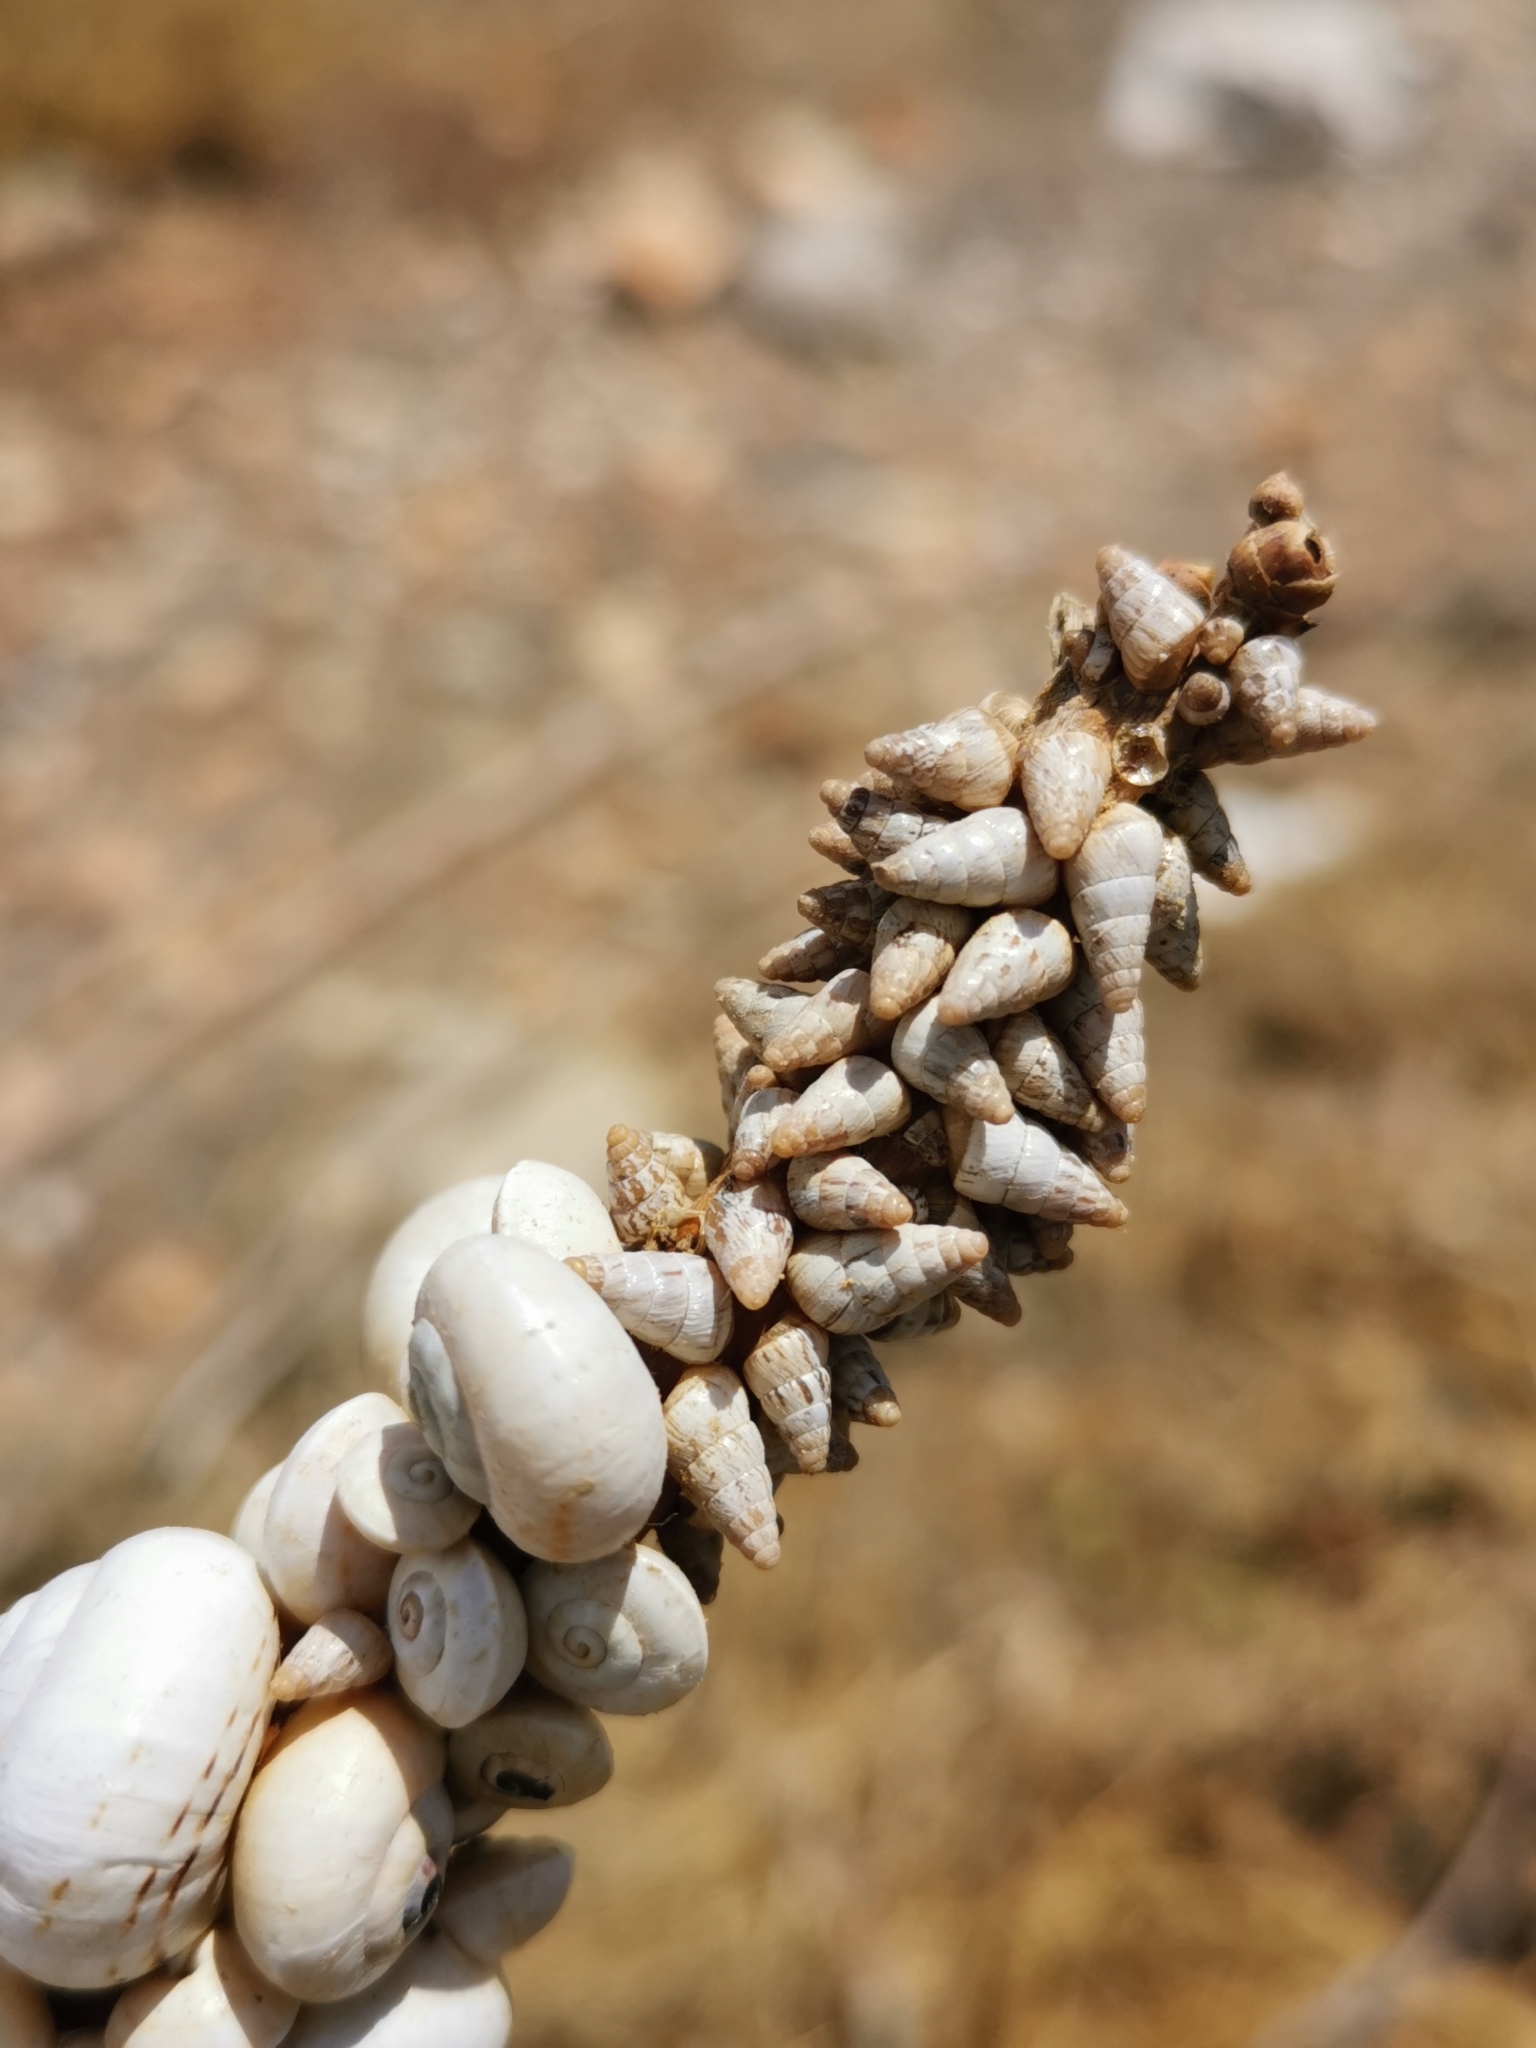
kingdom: Animalia
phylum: Mollusca
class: Gastropoda
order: Stylommatophora
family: Geomitridae
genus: Cochlicella
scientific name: Cochlicella barbara
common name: Potbellied helicellid
